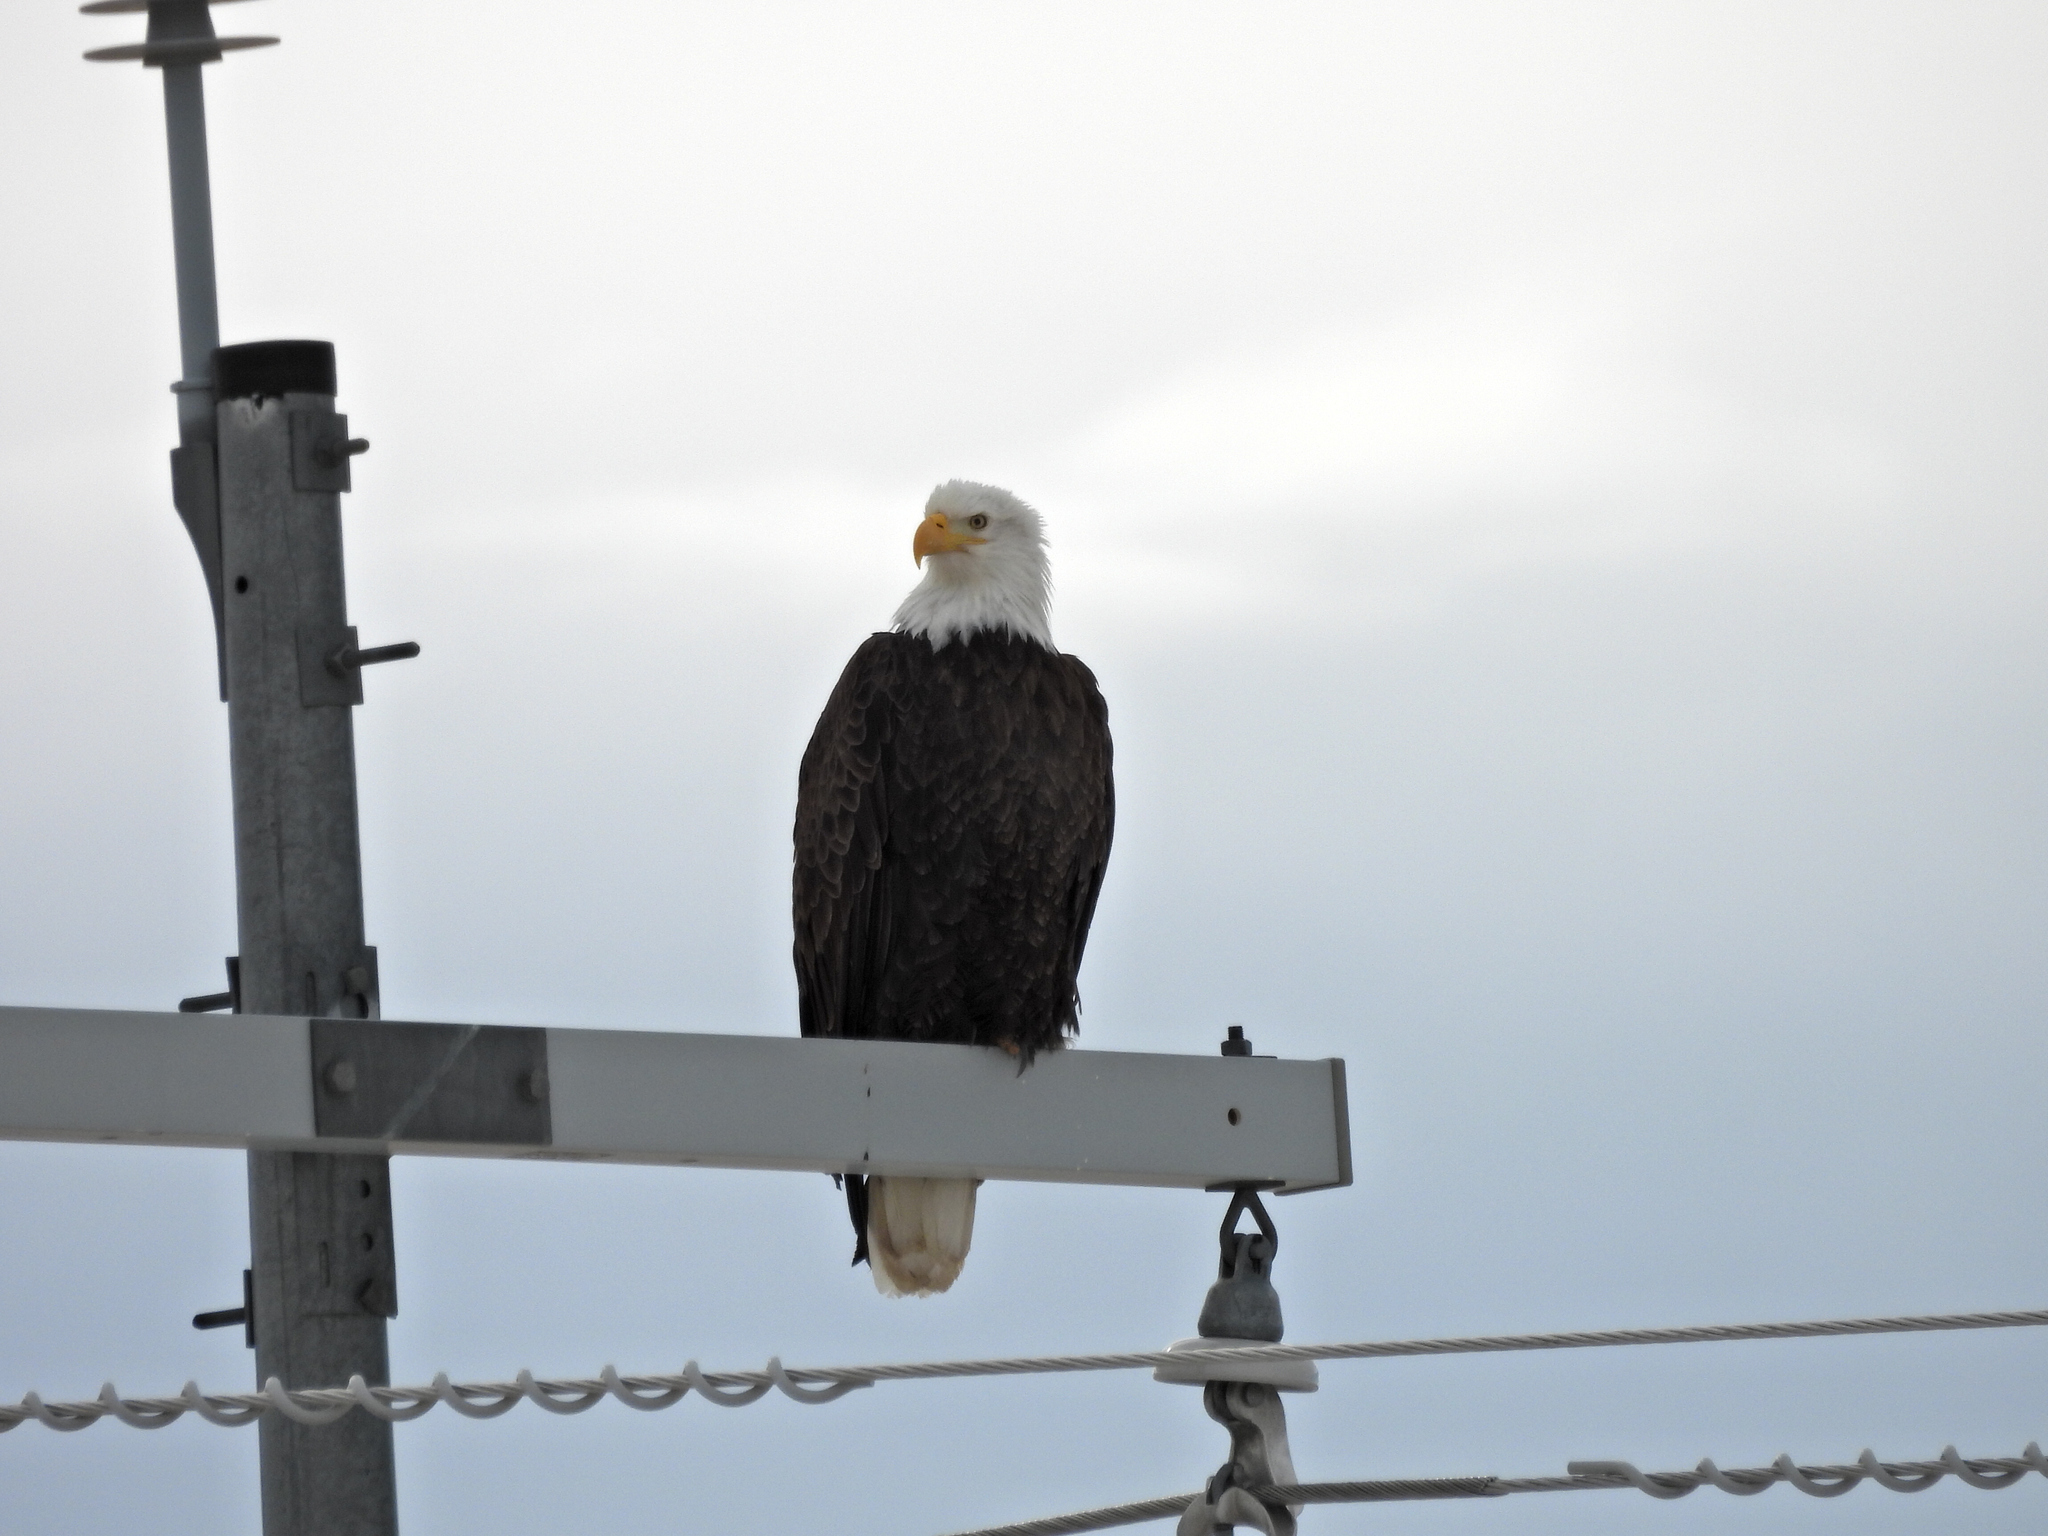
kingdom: Animalia
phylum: Chordata
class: Aves
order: Accipitriformes
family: Accipitridae
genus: Haliaeetus
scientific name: Haliaeetus leucocephalus
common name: Bald eagle
